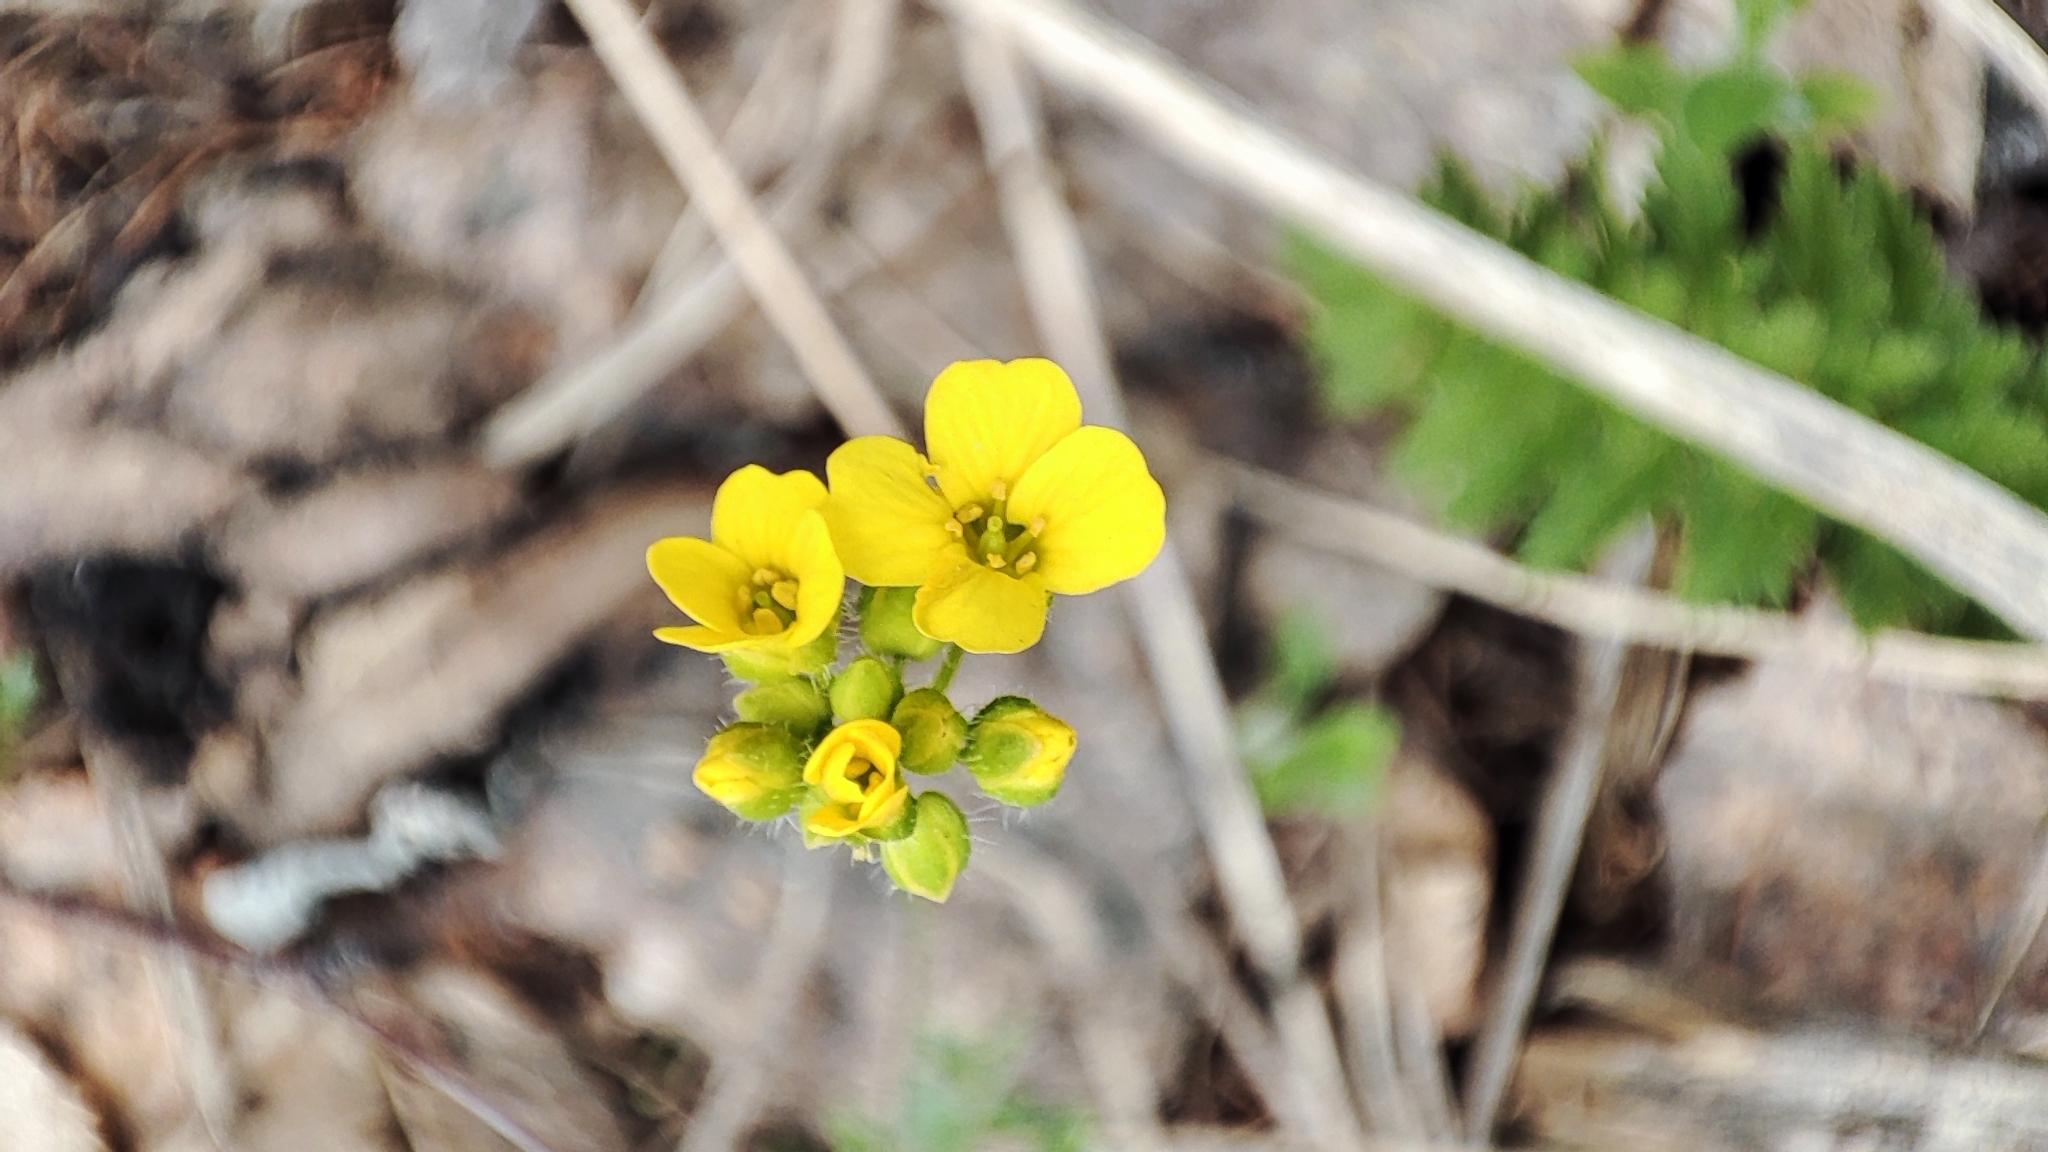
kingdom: Plantae
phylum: Tracheophyta
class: Magnoliopsida
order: Brassicales
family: Brassicaceae
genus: Draba
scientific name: Draba sibirica
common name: Siberian draba
